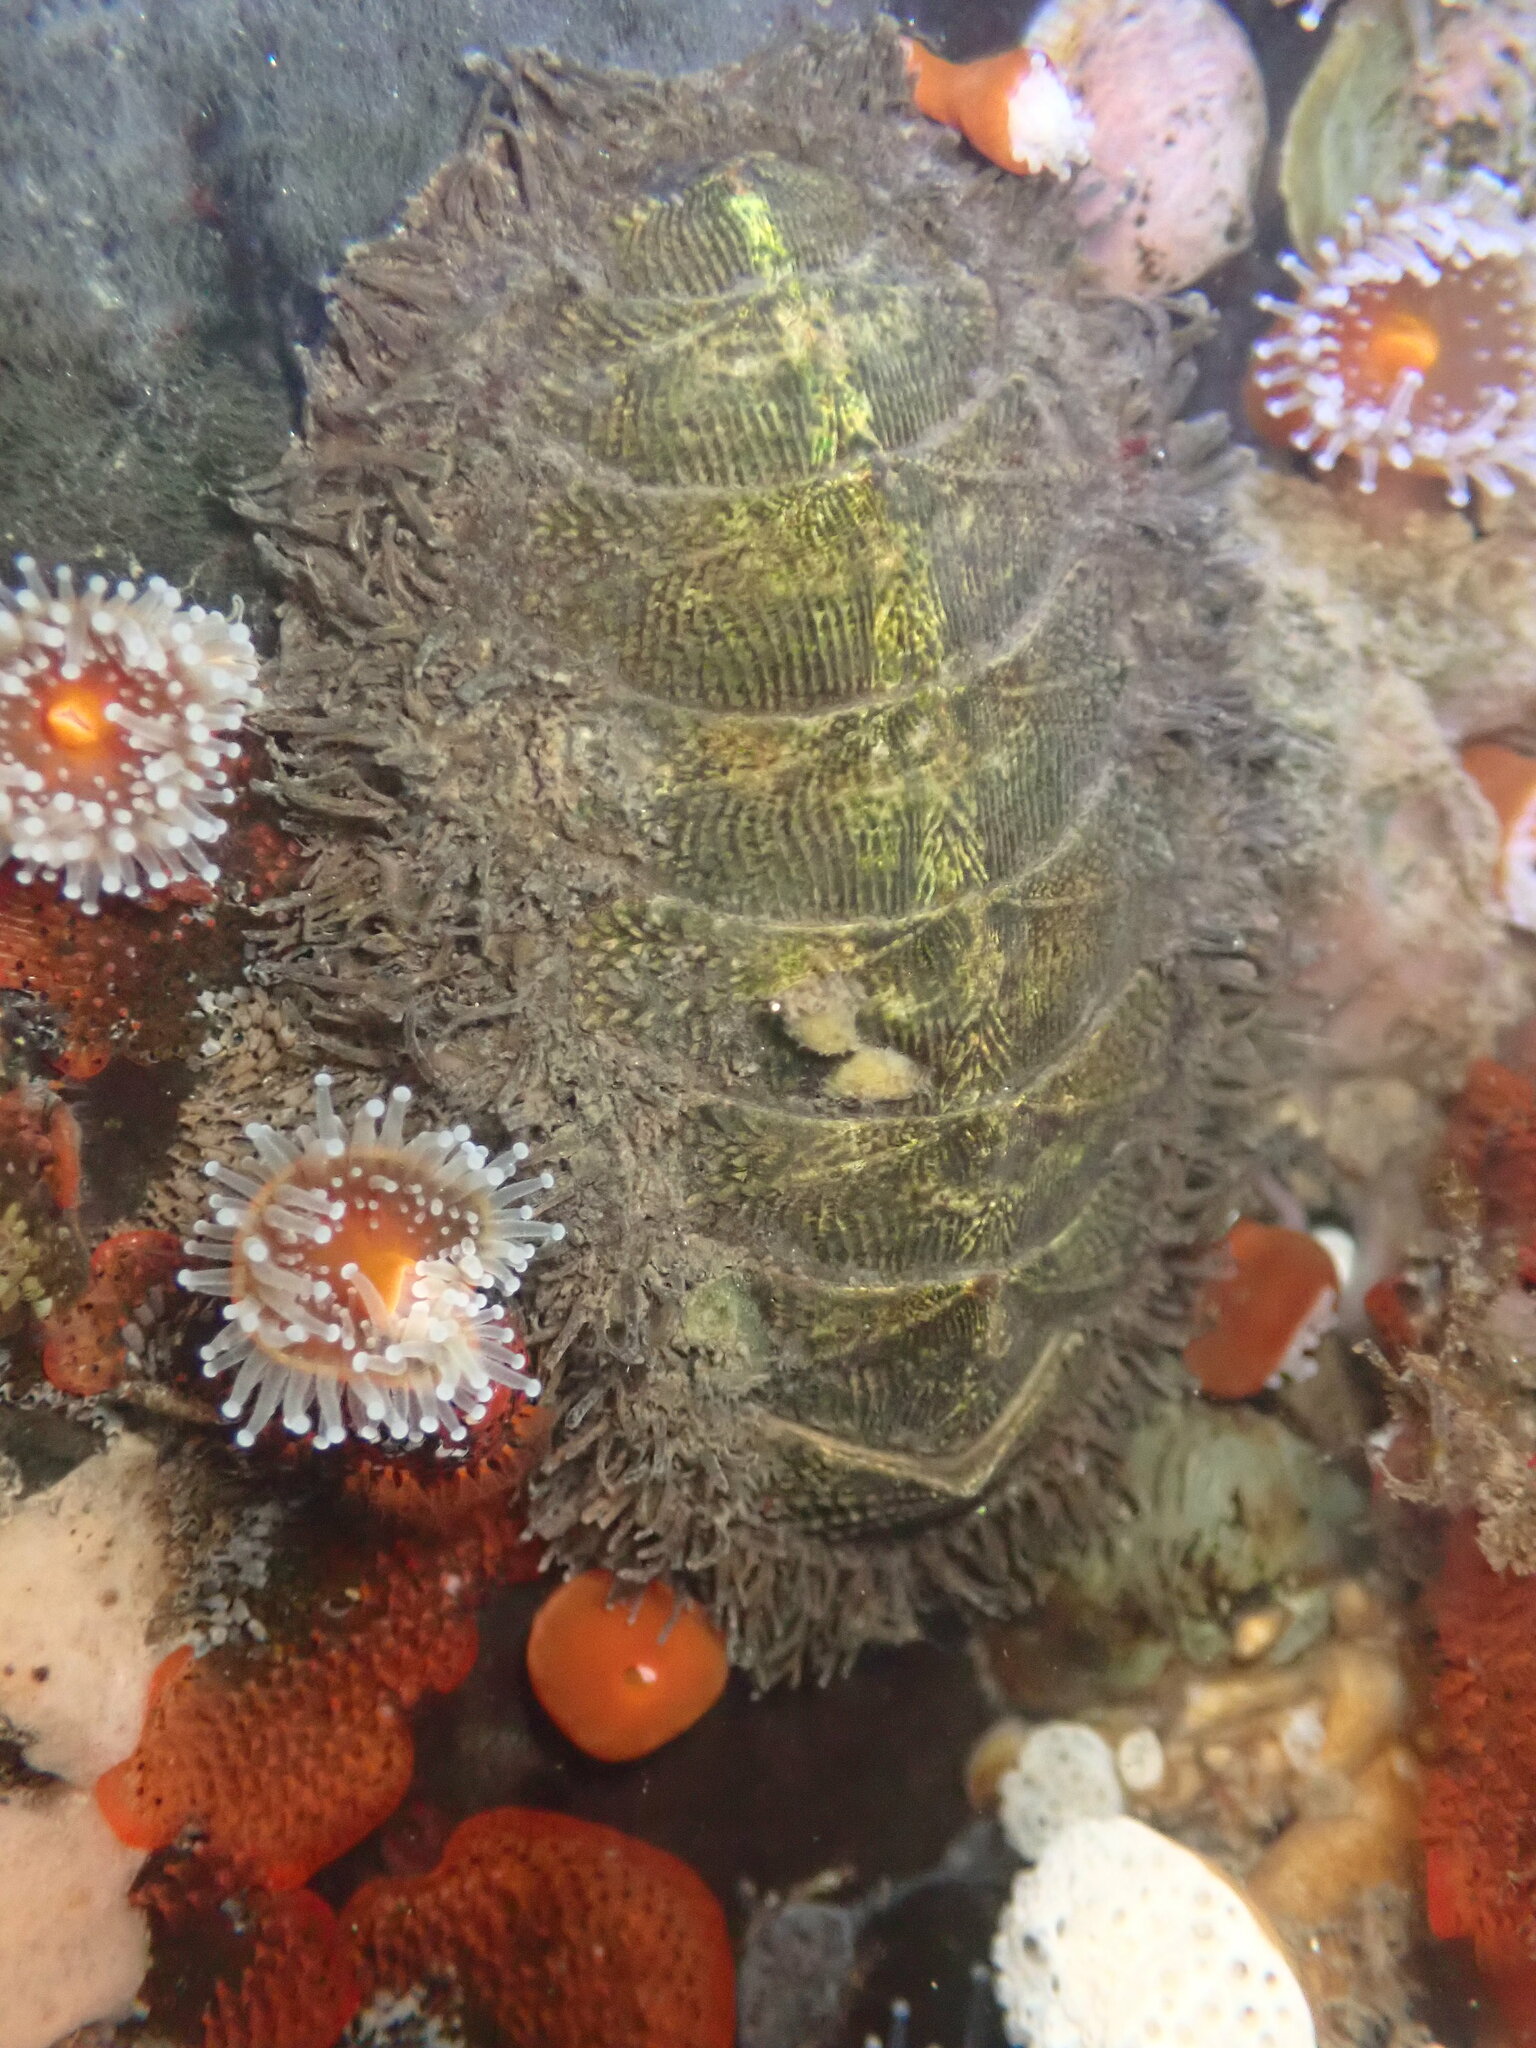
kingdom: Animalia
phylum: Mollusca
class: Polyplacophora
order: Chitonida
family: Mopaliidae
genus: Mopalia
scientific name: Mopalia muscosa
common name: Mossy chiton
